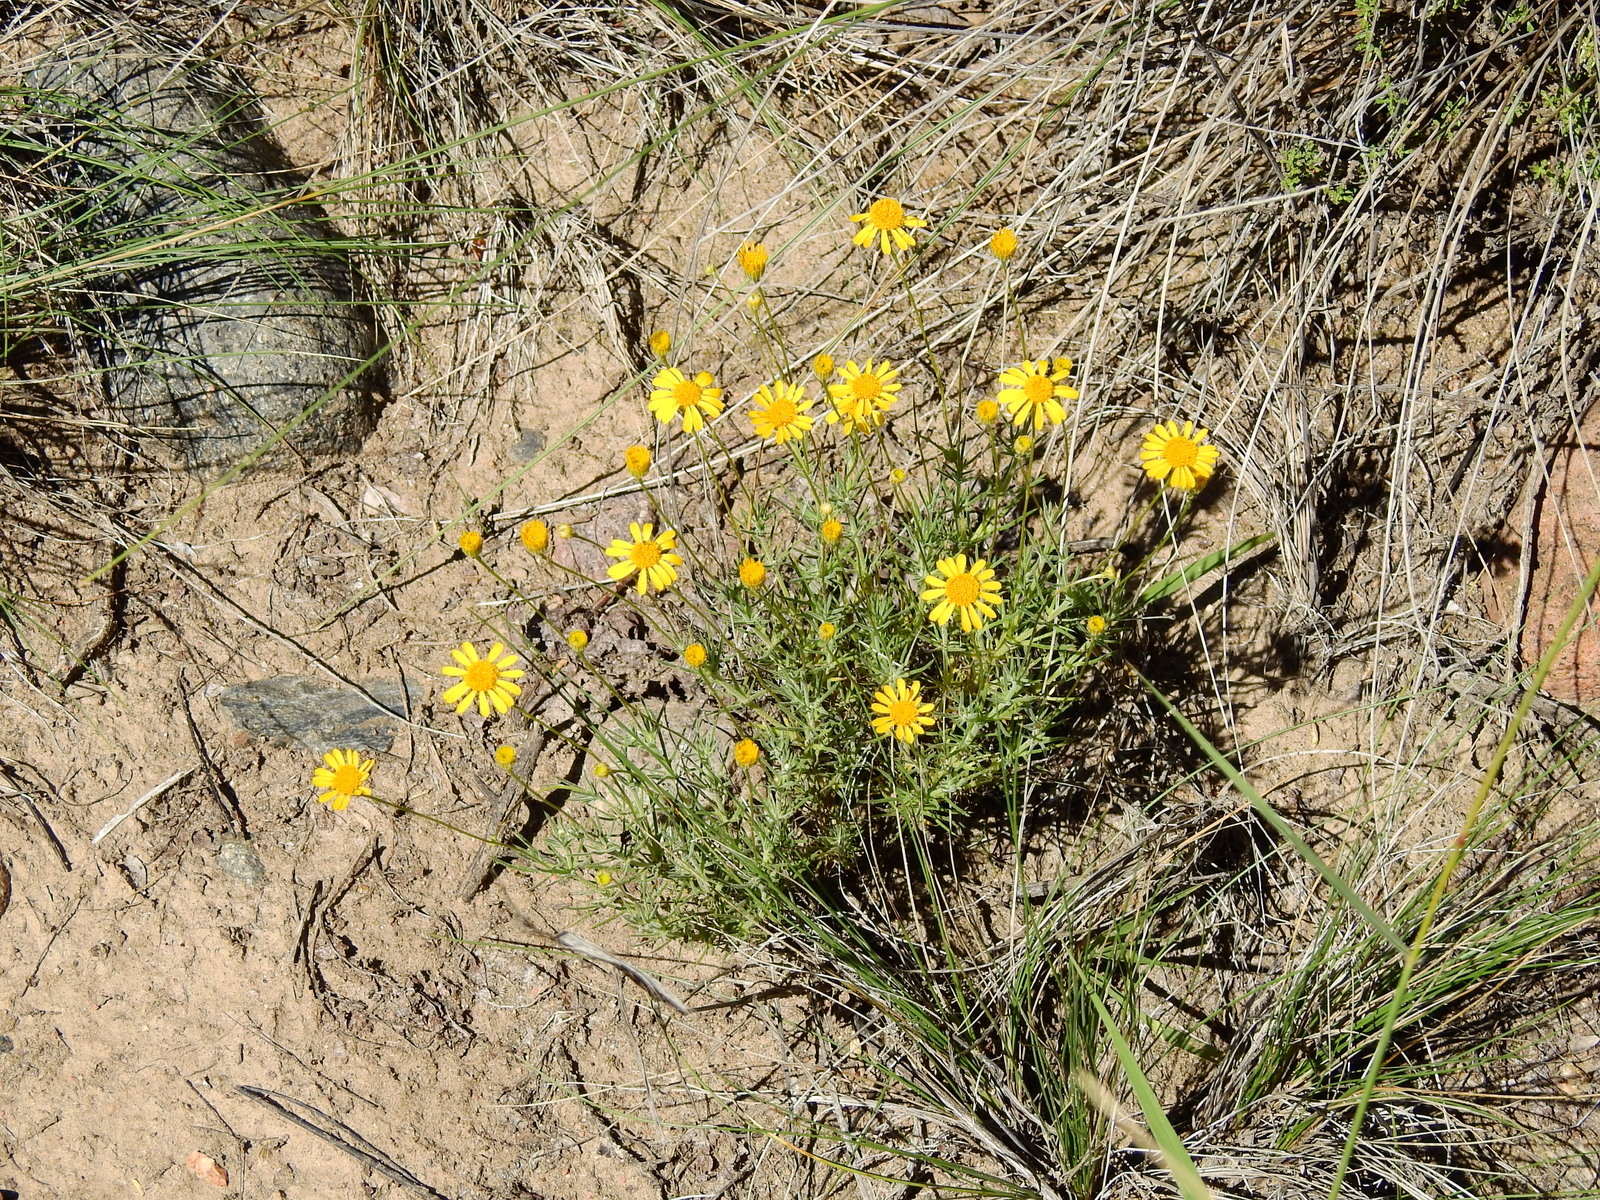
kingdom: Plantae
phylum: Tracheophyta
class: Magnoliopsida
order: Asterales
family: Asteraceae
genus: Thymophylla
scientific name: Thymophylla pentachaeta
